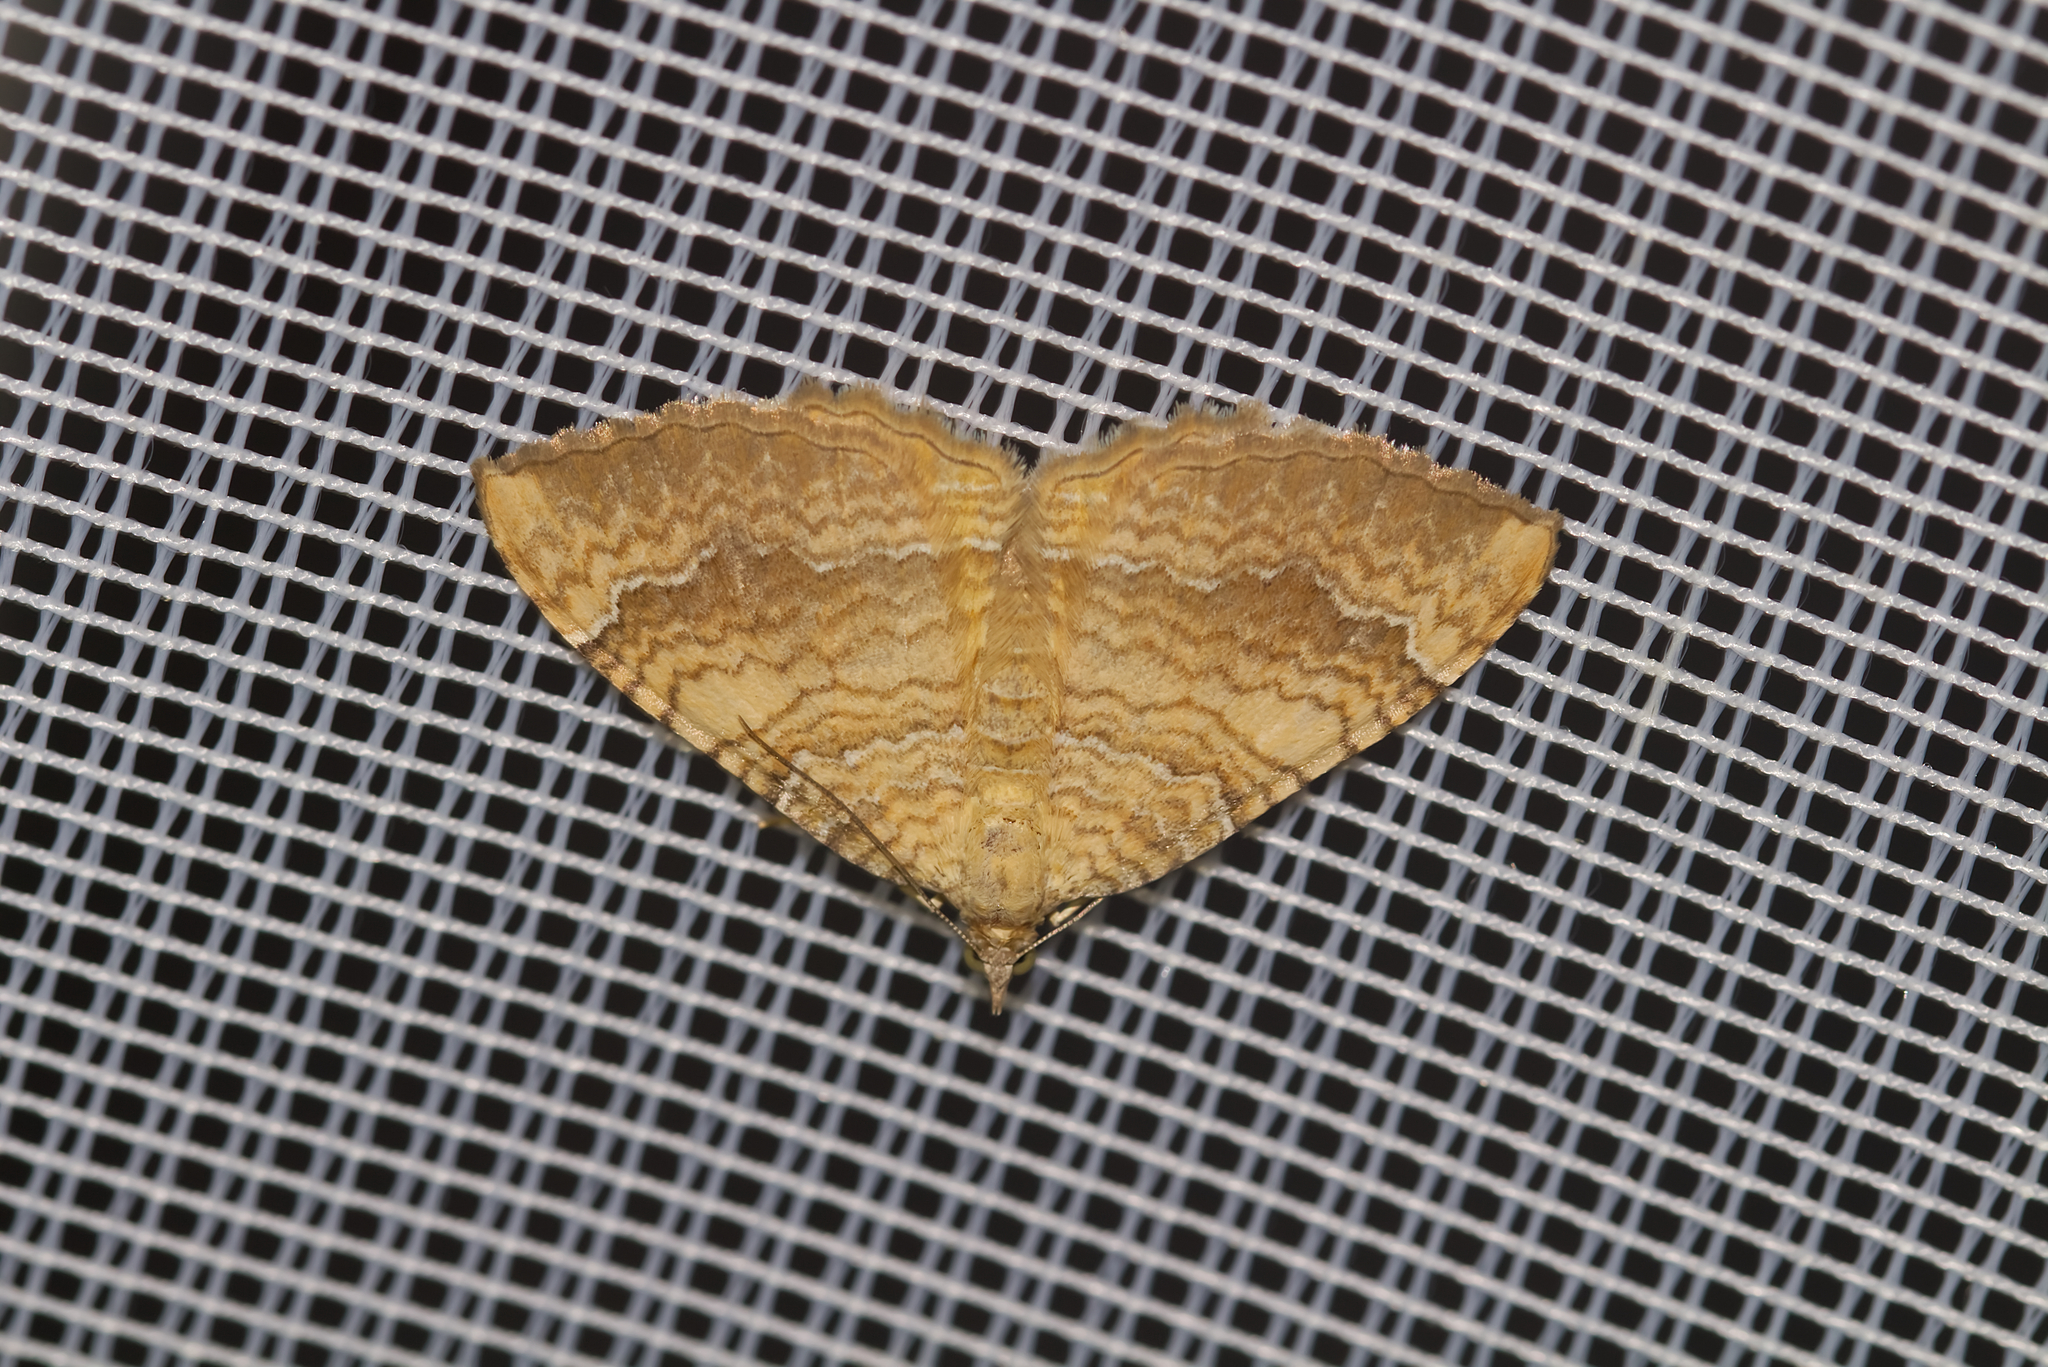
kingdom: Animalia
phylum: Arthropoda
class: Insecta
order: Lepidoptera
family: Geometridae
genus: Camptogramma
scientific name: Camptogramma bilineata
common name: Yellow shell
